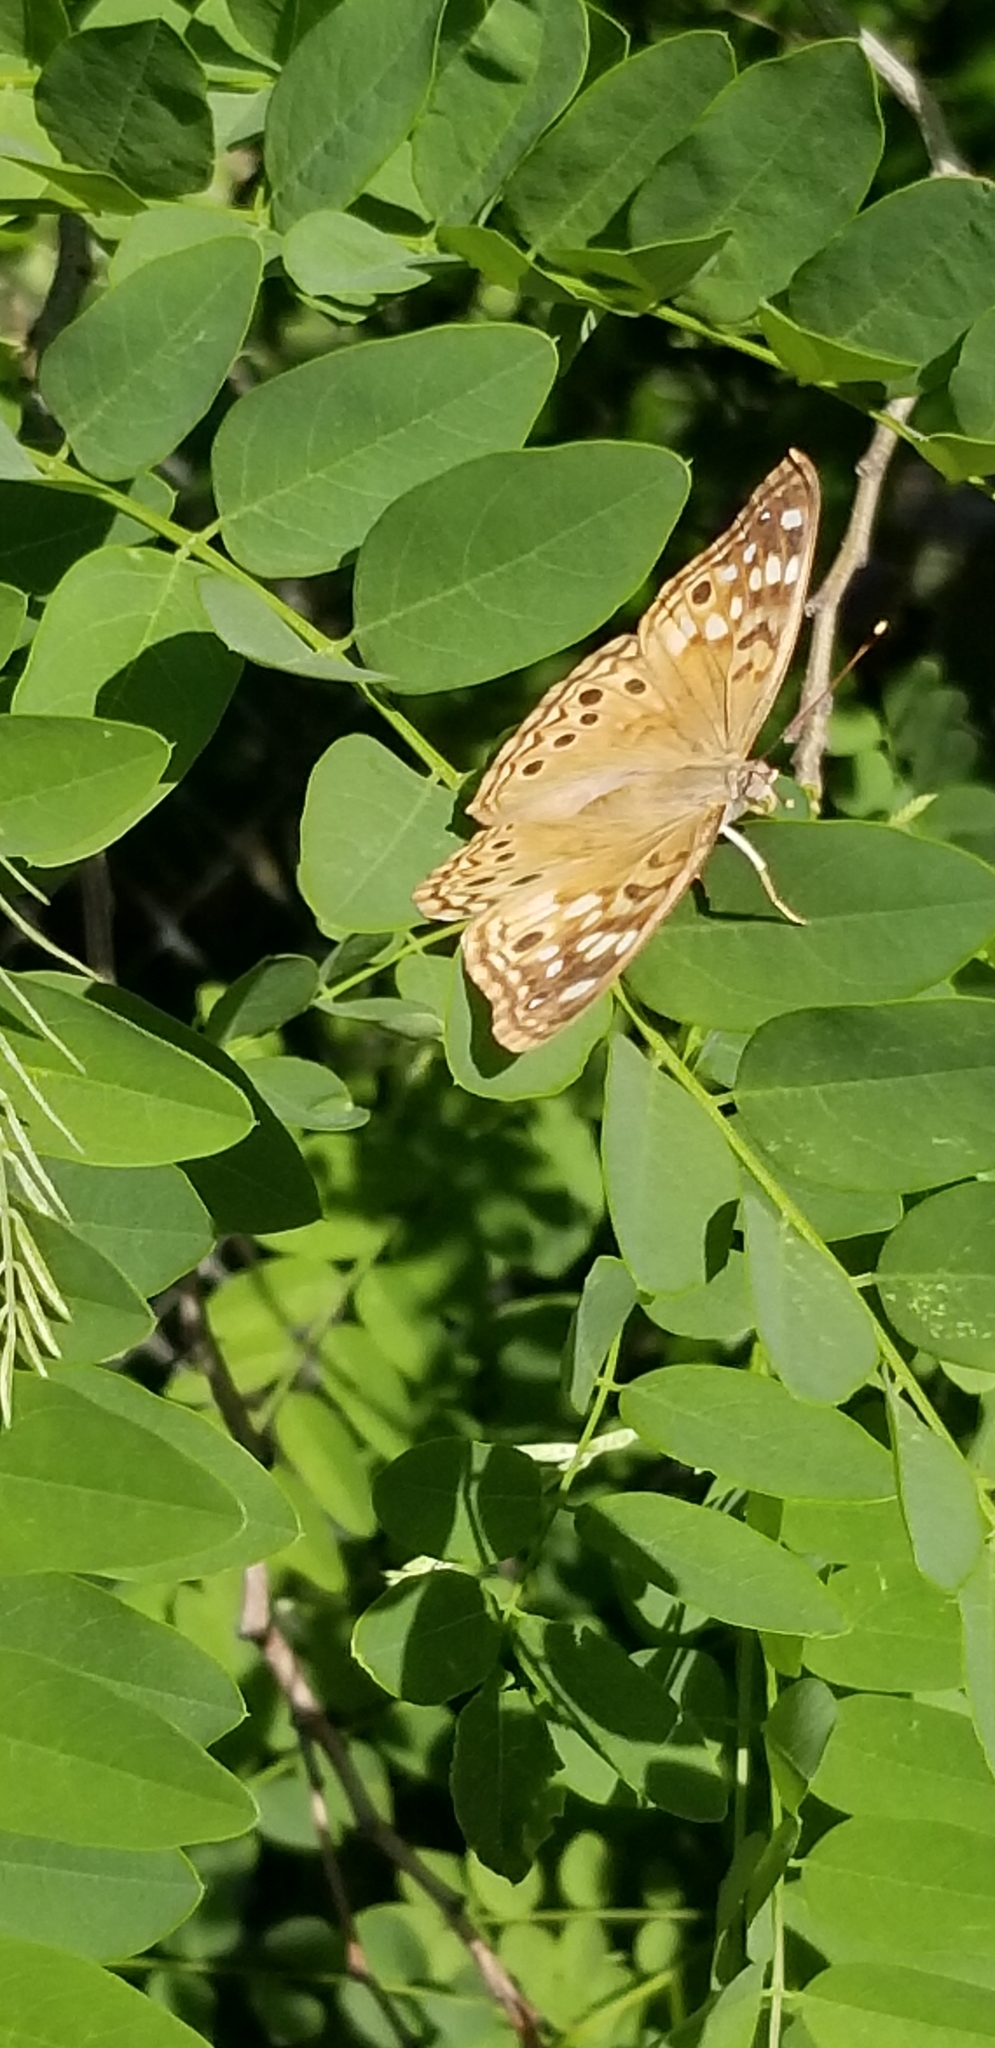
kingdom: Animalia
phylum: Arthropoda
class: Insecta
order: Lepidoptera
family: Nymphalidae
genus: Asterocampa
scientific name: Asterocampa celtis
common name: Hackberry emperor
